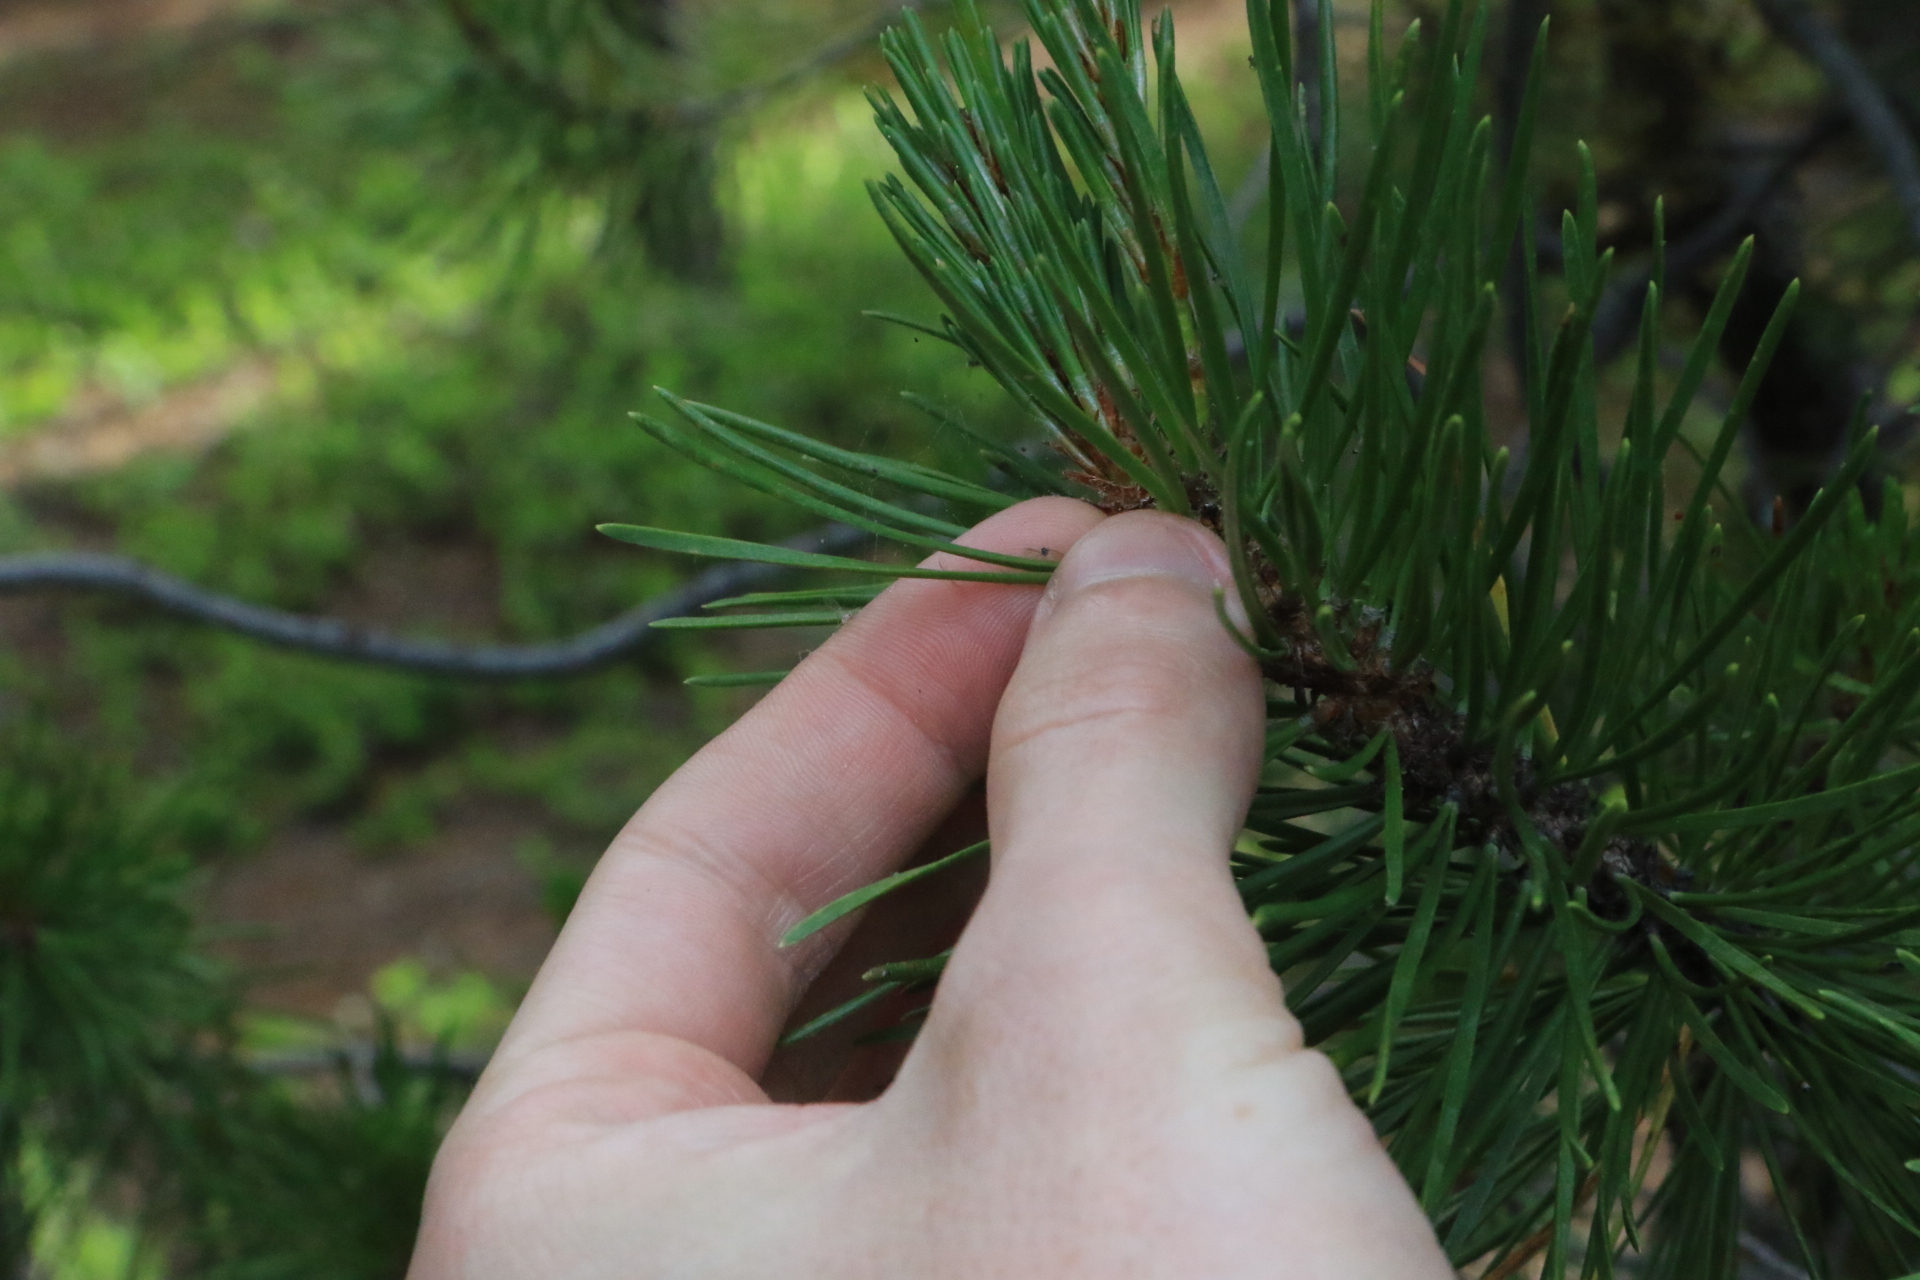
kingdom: Plantae
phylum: Tracheophyta
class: Pinopsida
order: Pinales
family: Pinaceae
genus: Pinus
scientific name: Pinus contorta
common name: Lodgepole pine
